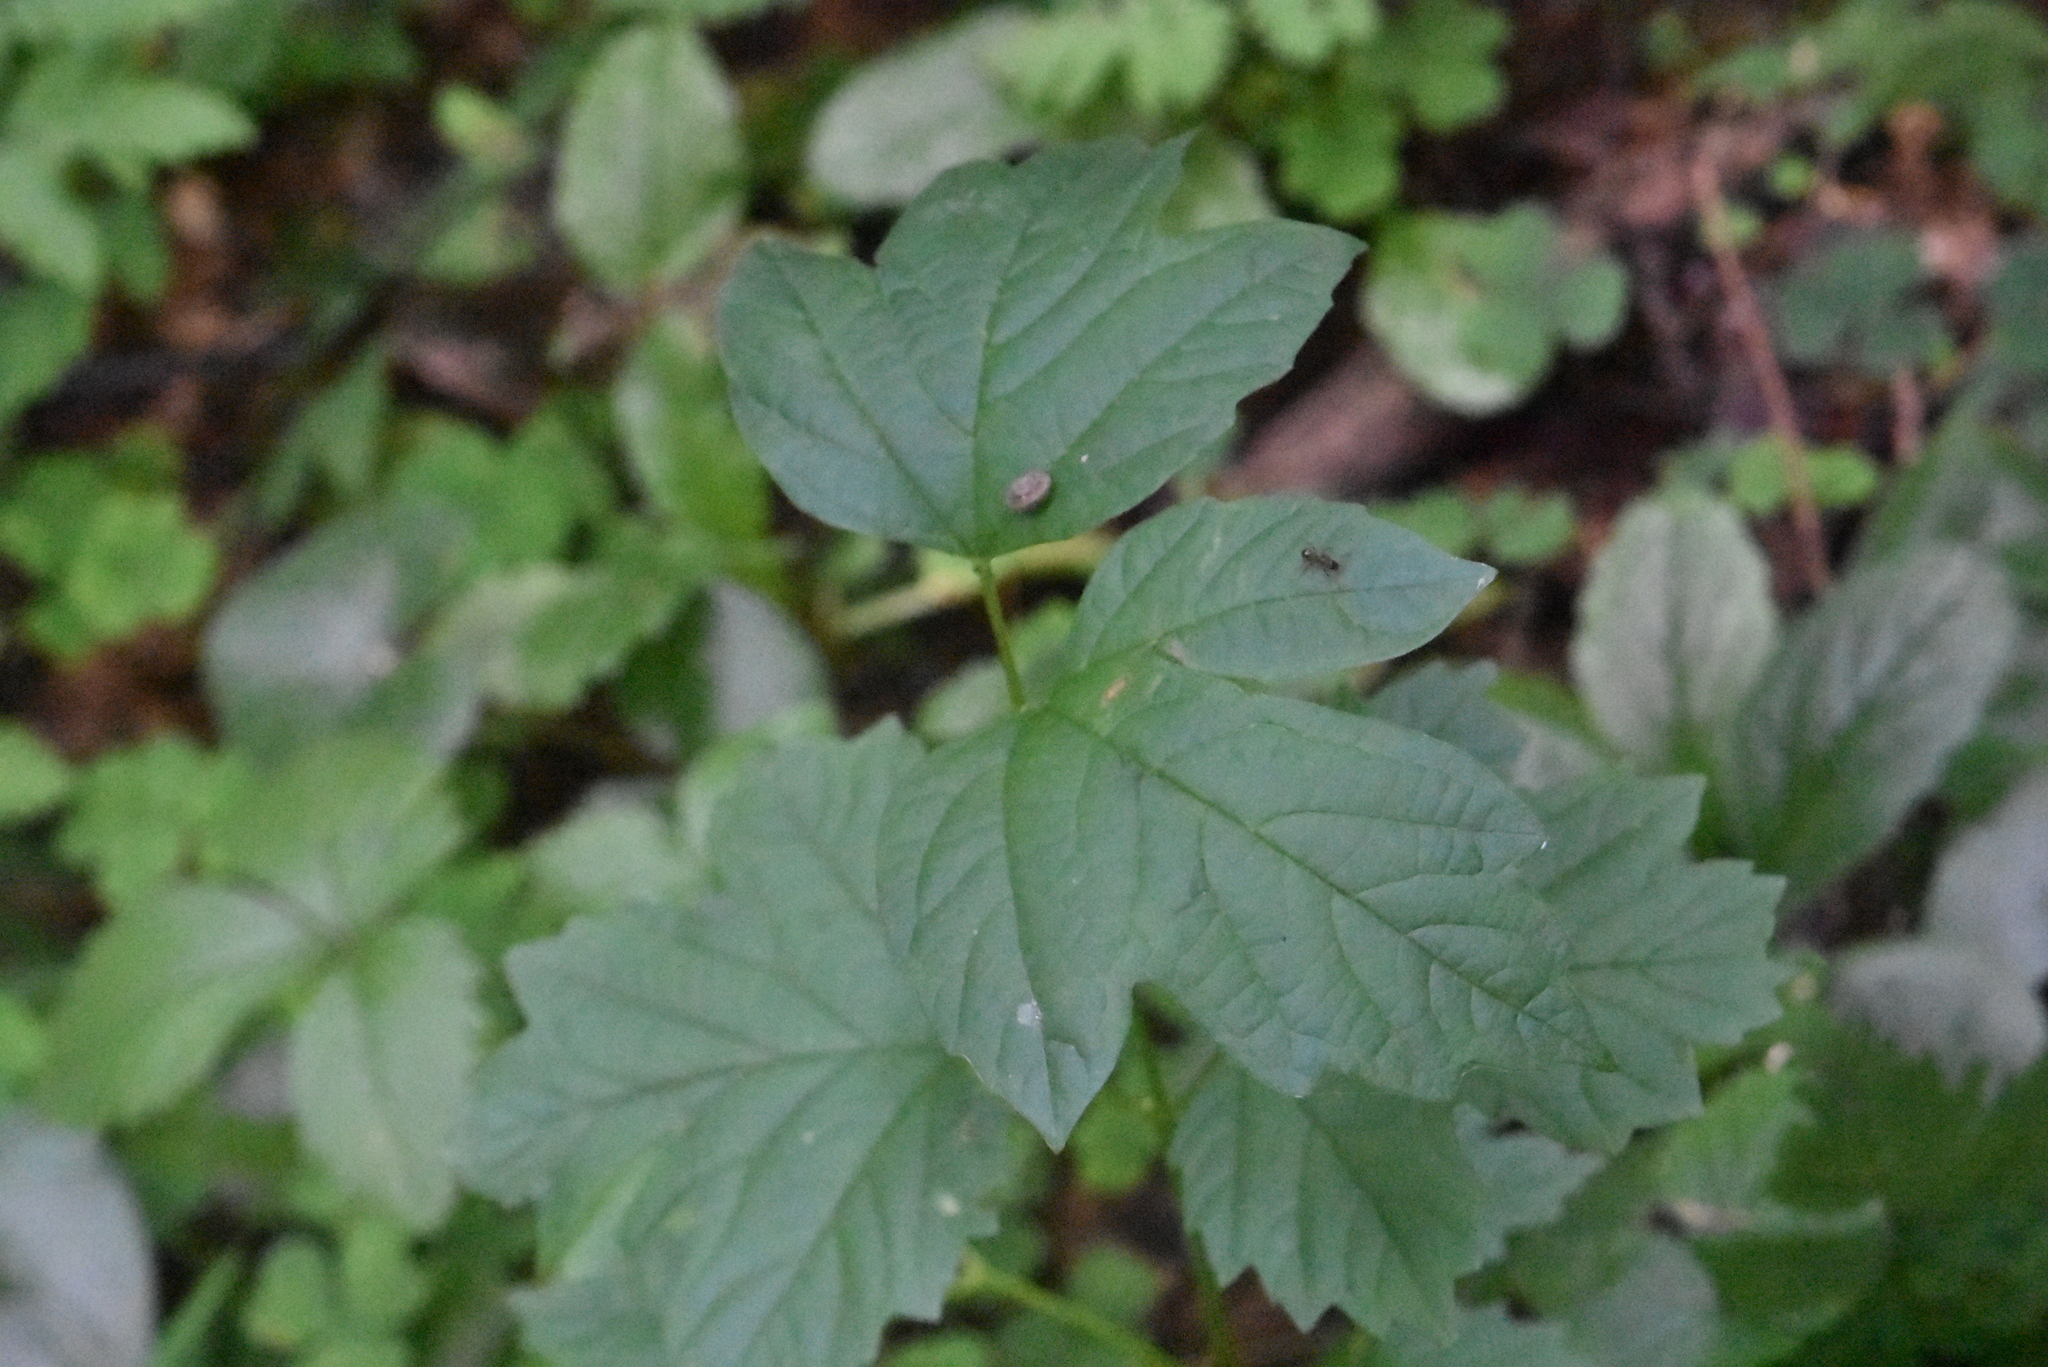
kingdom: Plantae
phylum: Tracheophyta
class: Magnoliopsida
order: Dipsacales
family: Viburnaceae
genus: Viburnum
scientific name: Viburnum opulus
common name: Guelder-rose
